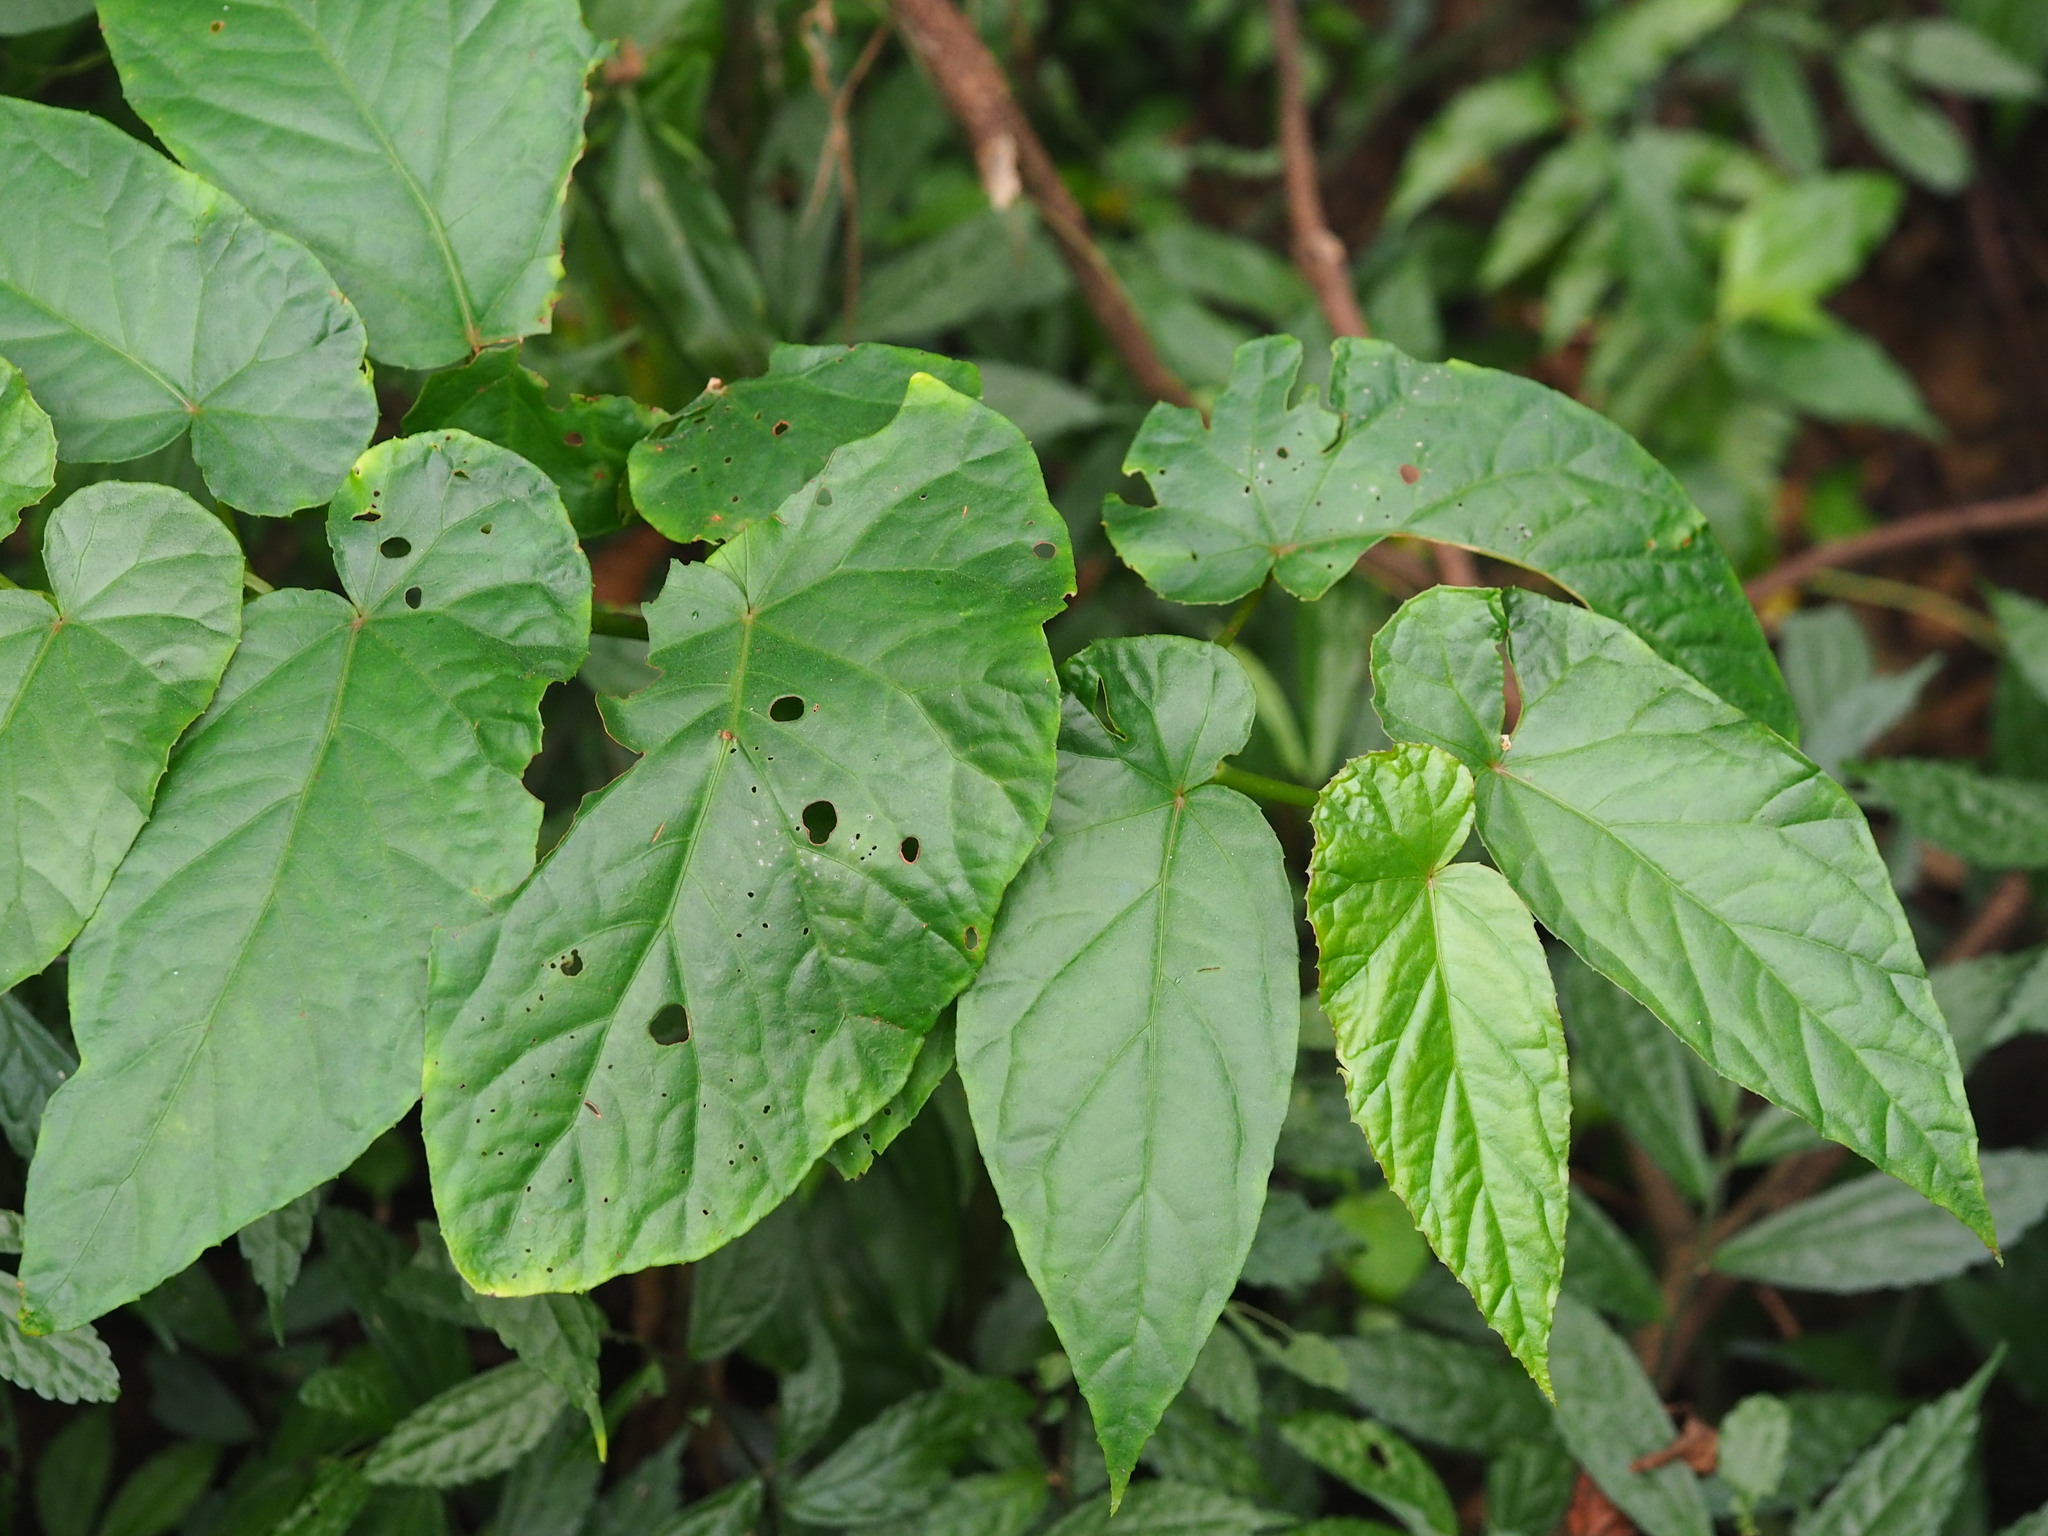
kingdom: Plantae
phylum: Tracheophyta
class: Magnoliopsida
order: Cucurbitales
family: Begoniaceae
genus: Begonia
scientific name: Begonia longifolia
